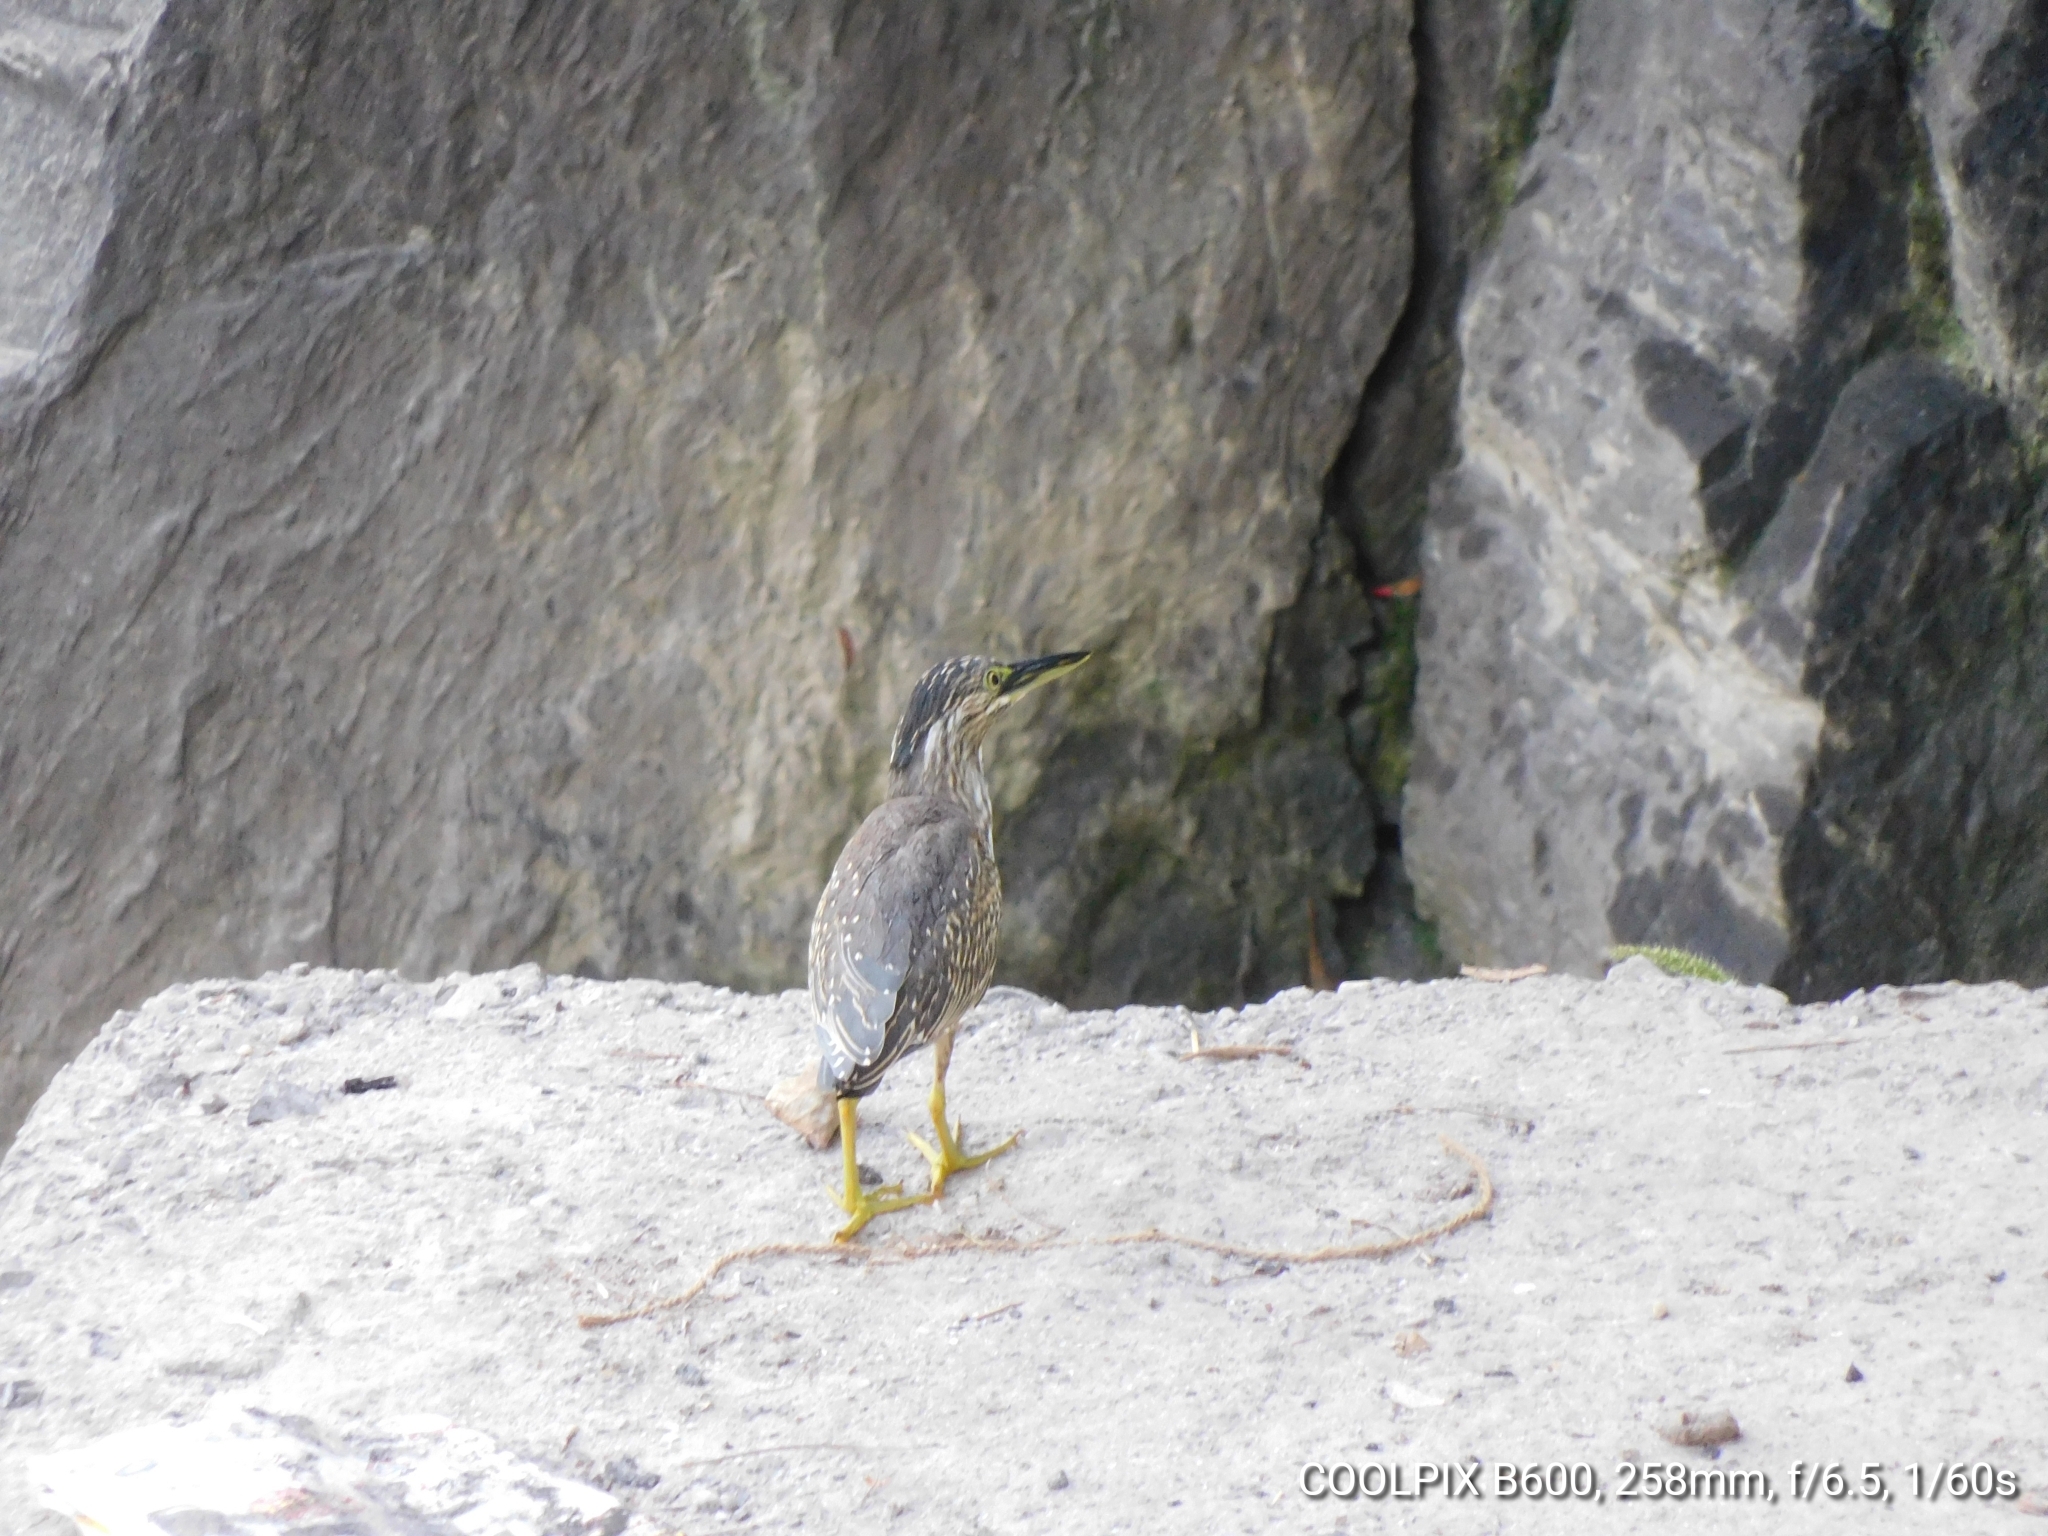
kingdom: Animalia
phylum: Chordata
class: Aves
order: Pelecaniformes
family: Ardeidae
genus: Butorides
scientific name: Butorides striata
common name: Striated heron
